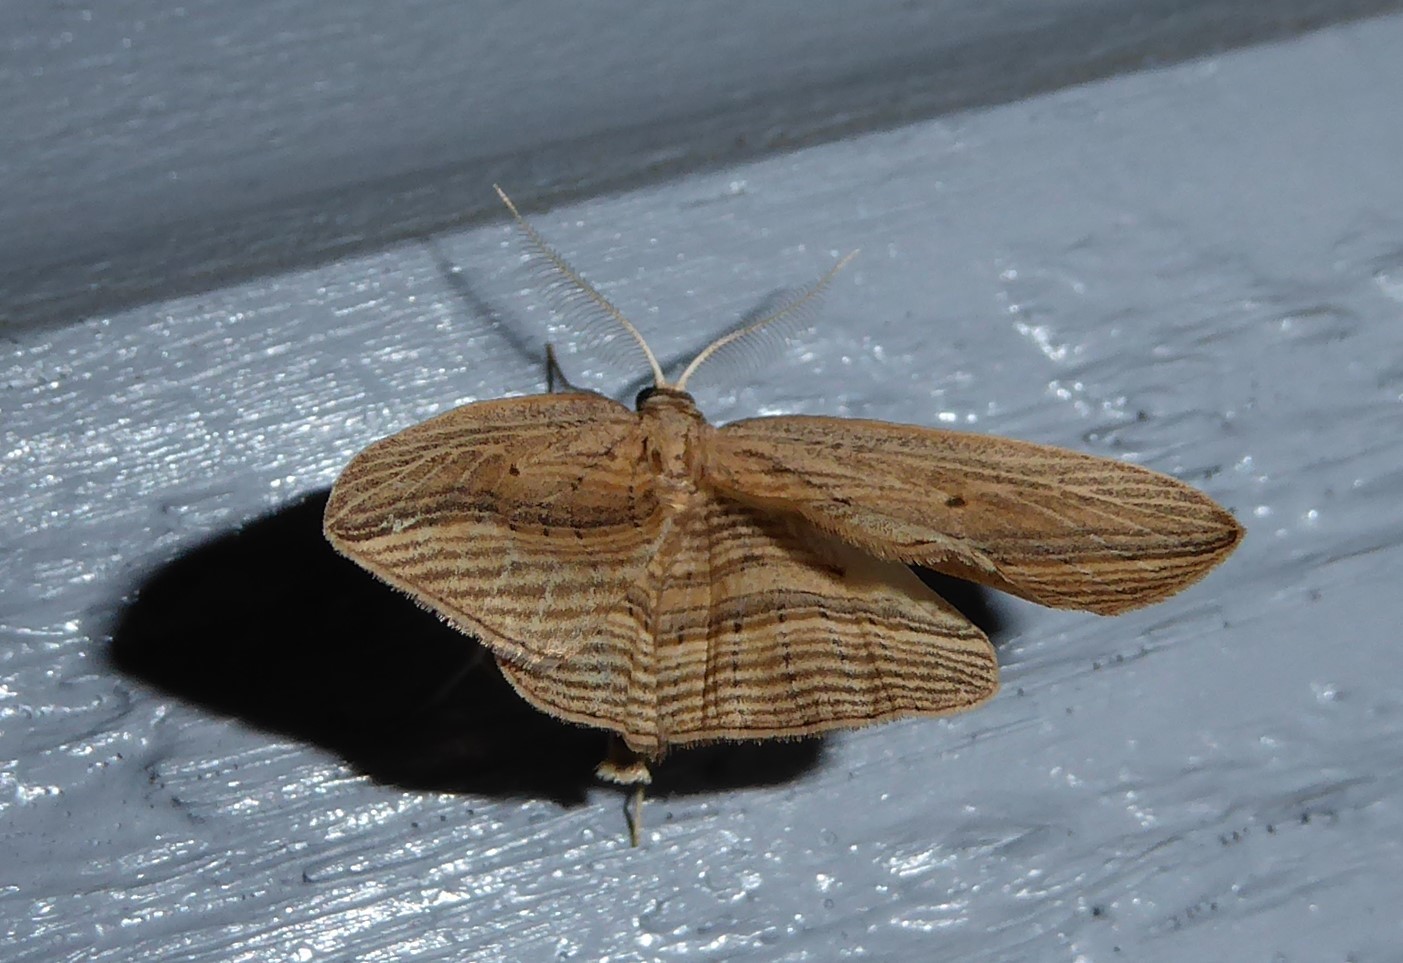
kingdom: Animalia
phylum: Arthropoda
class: Insecta
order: Lepidoptera
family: Geometridae
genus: Epiphryne
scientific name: Epiphryne verriculata
